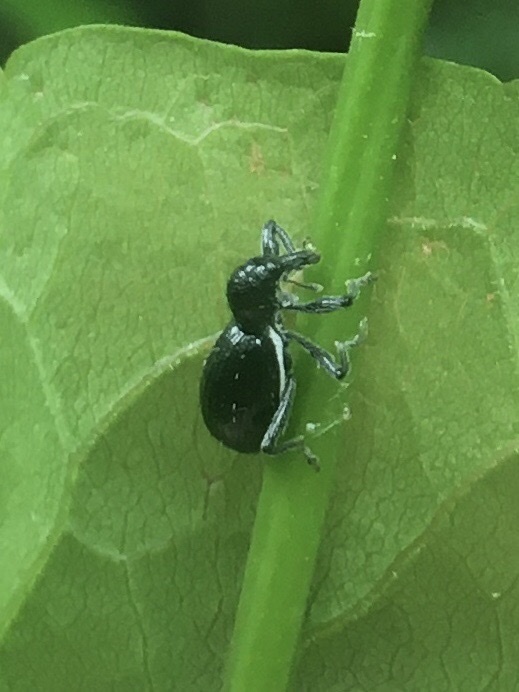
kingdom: Animalia
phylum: Arthropoda
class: Insecta
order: Coleoptera
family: Curculionidae
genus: Otidocephalus
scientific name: Otidocephalus chevrolatii
